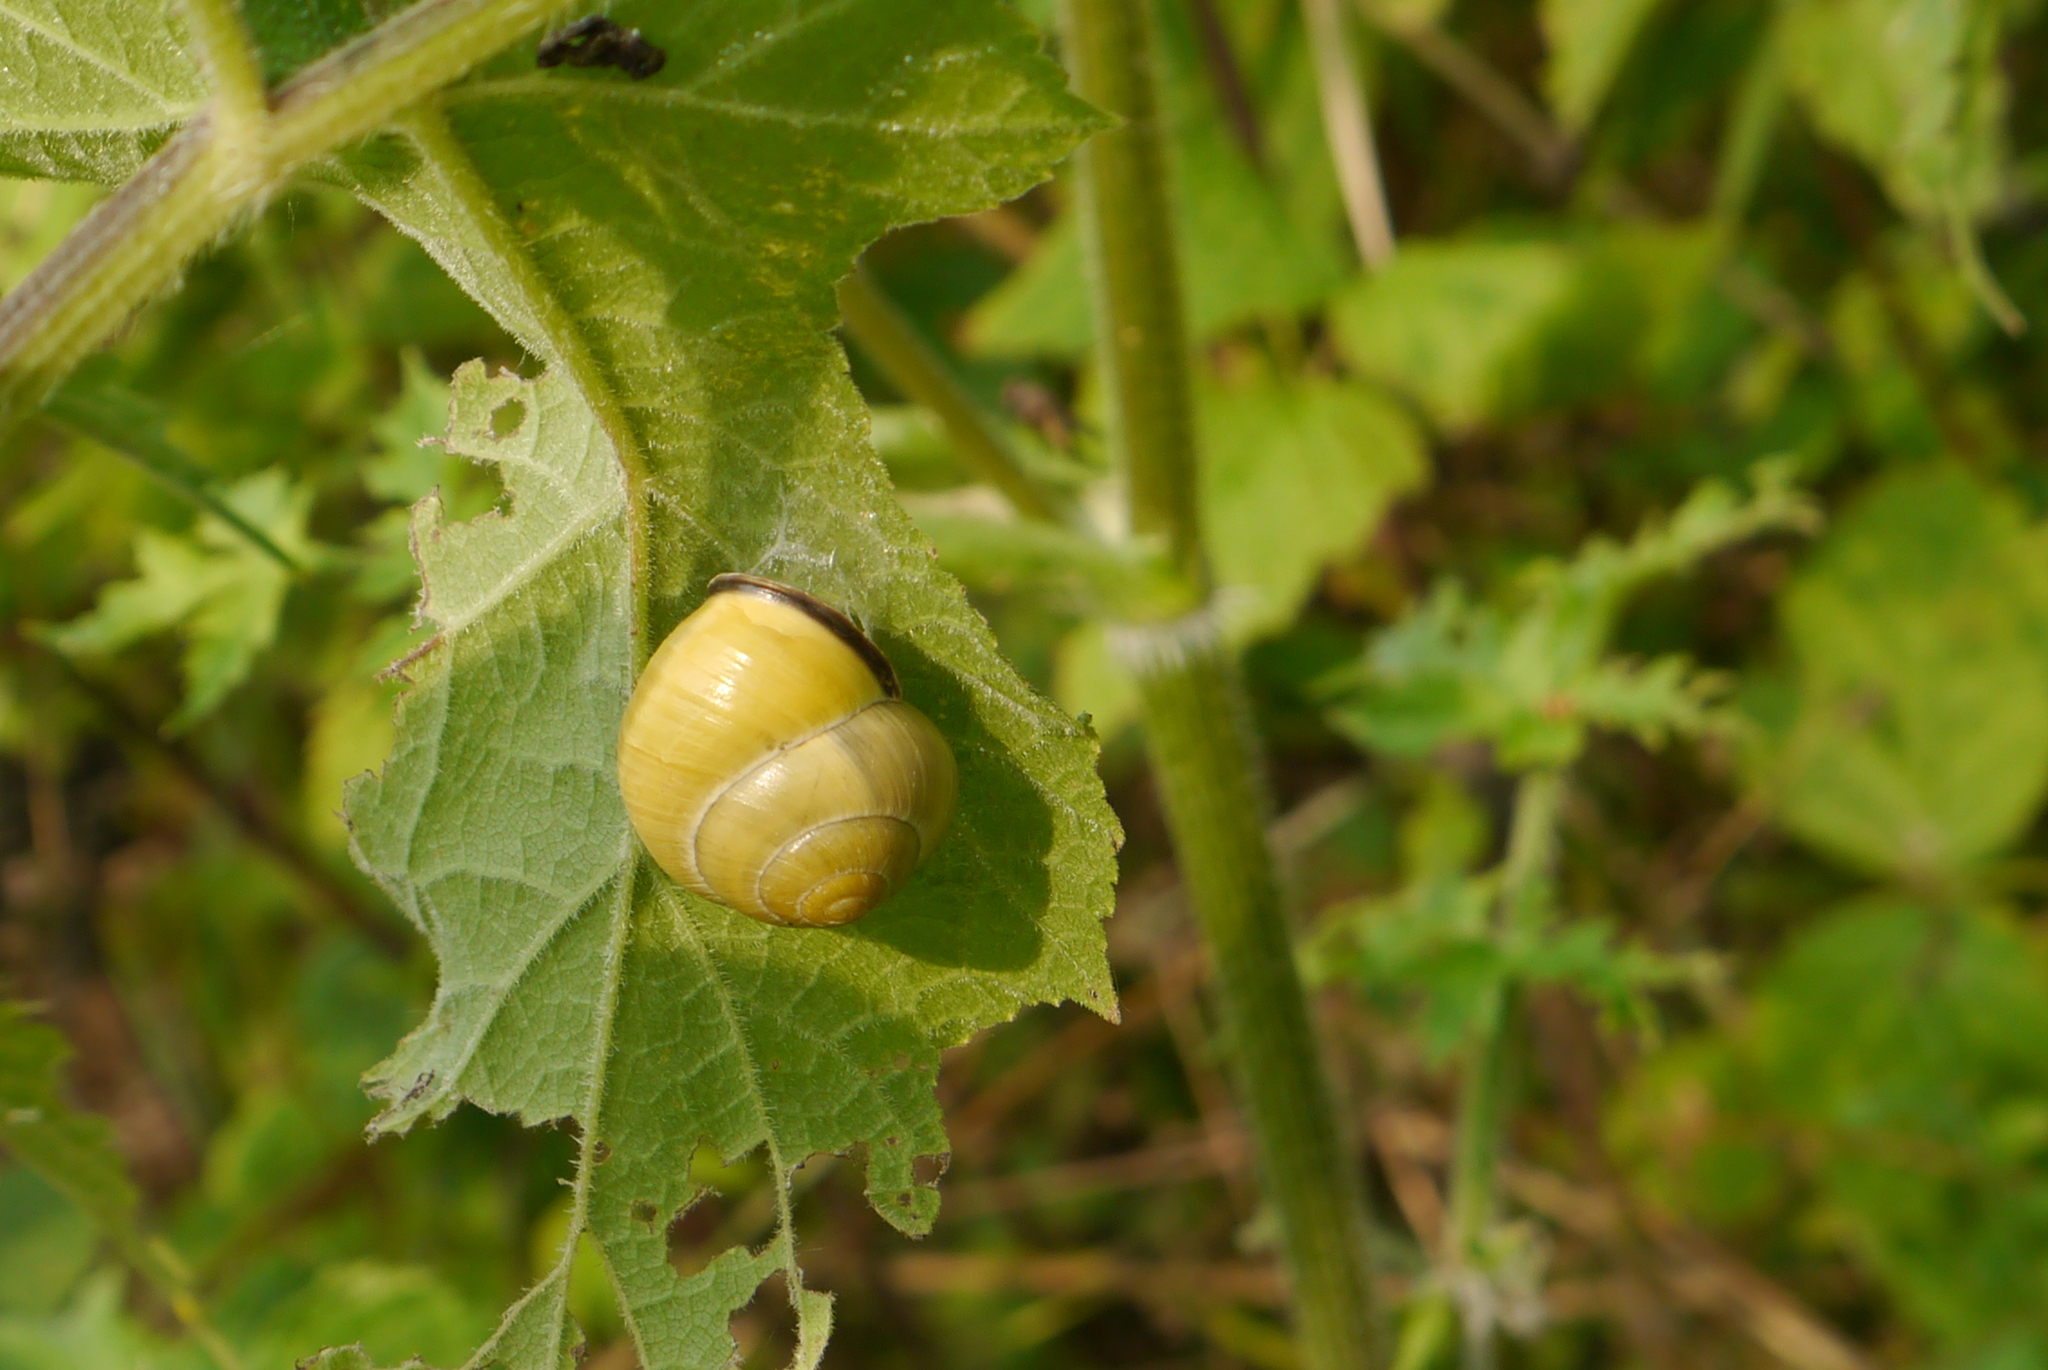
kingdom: Animalia
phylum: Mollusca
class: Gastropoda
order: Stylommatophora
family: Helicidae
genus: Cepaea
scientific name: Cepaea nemoralis
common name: Grovesnail
